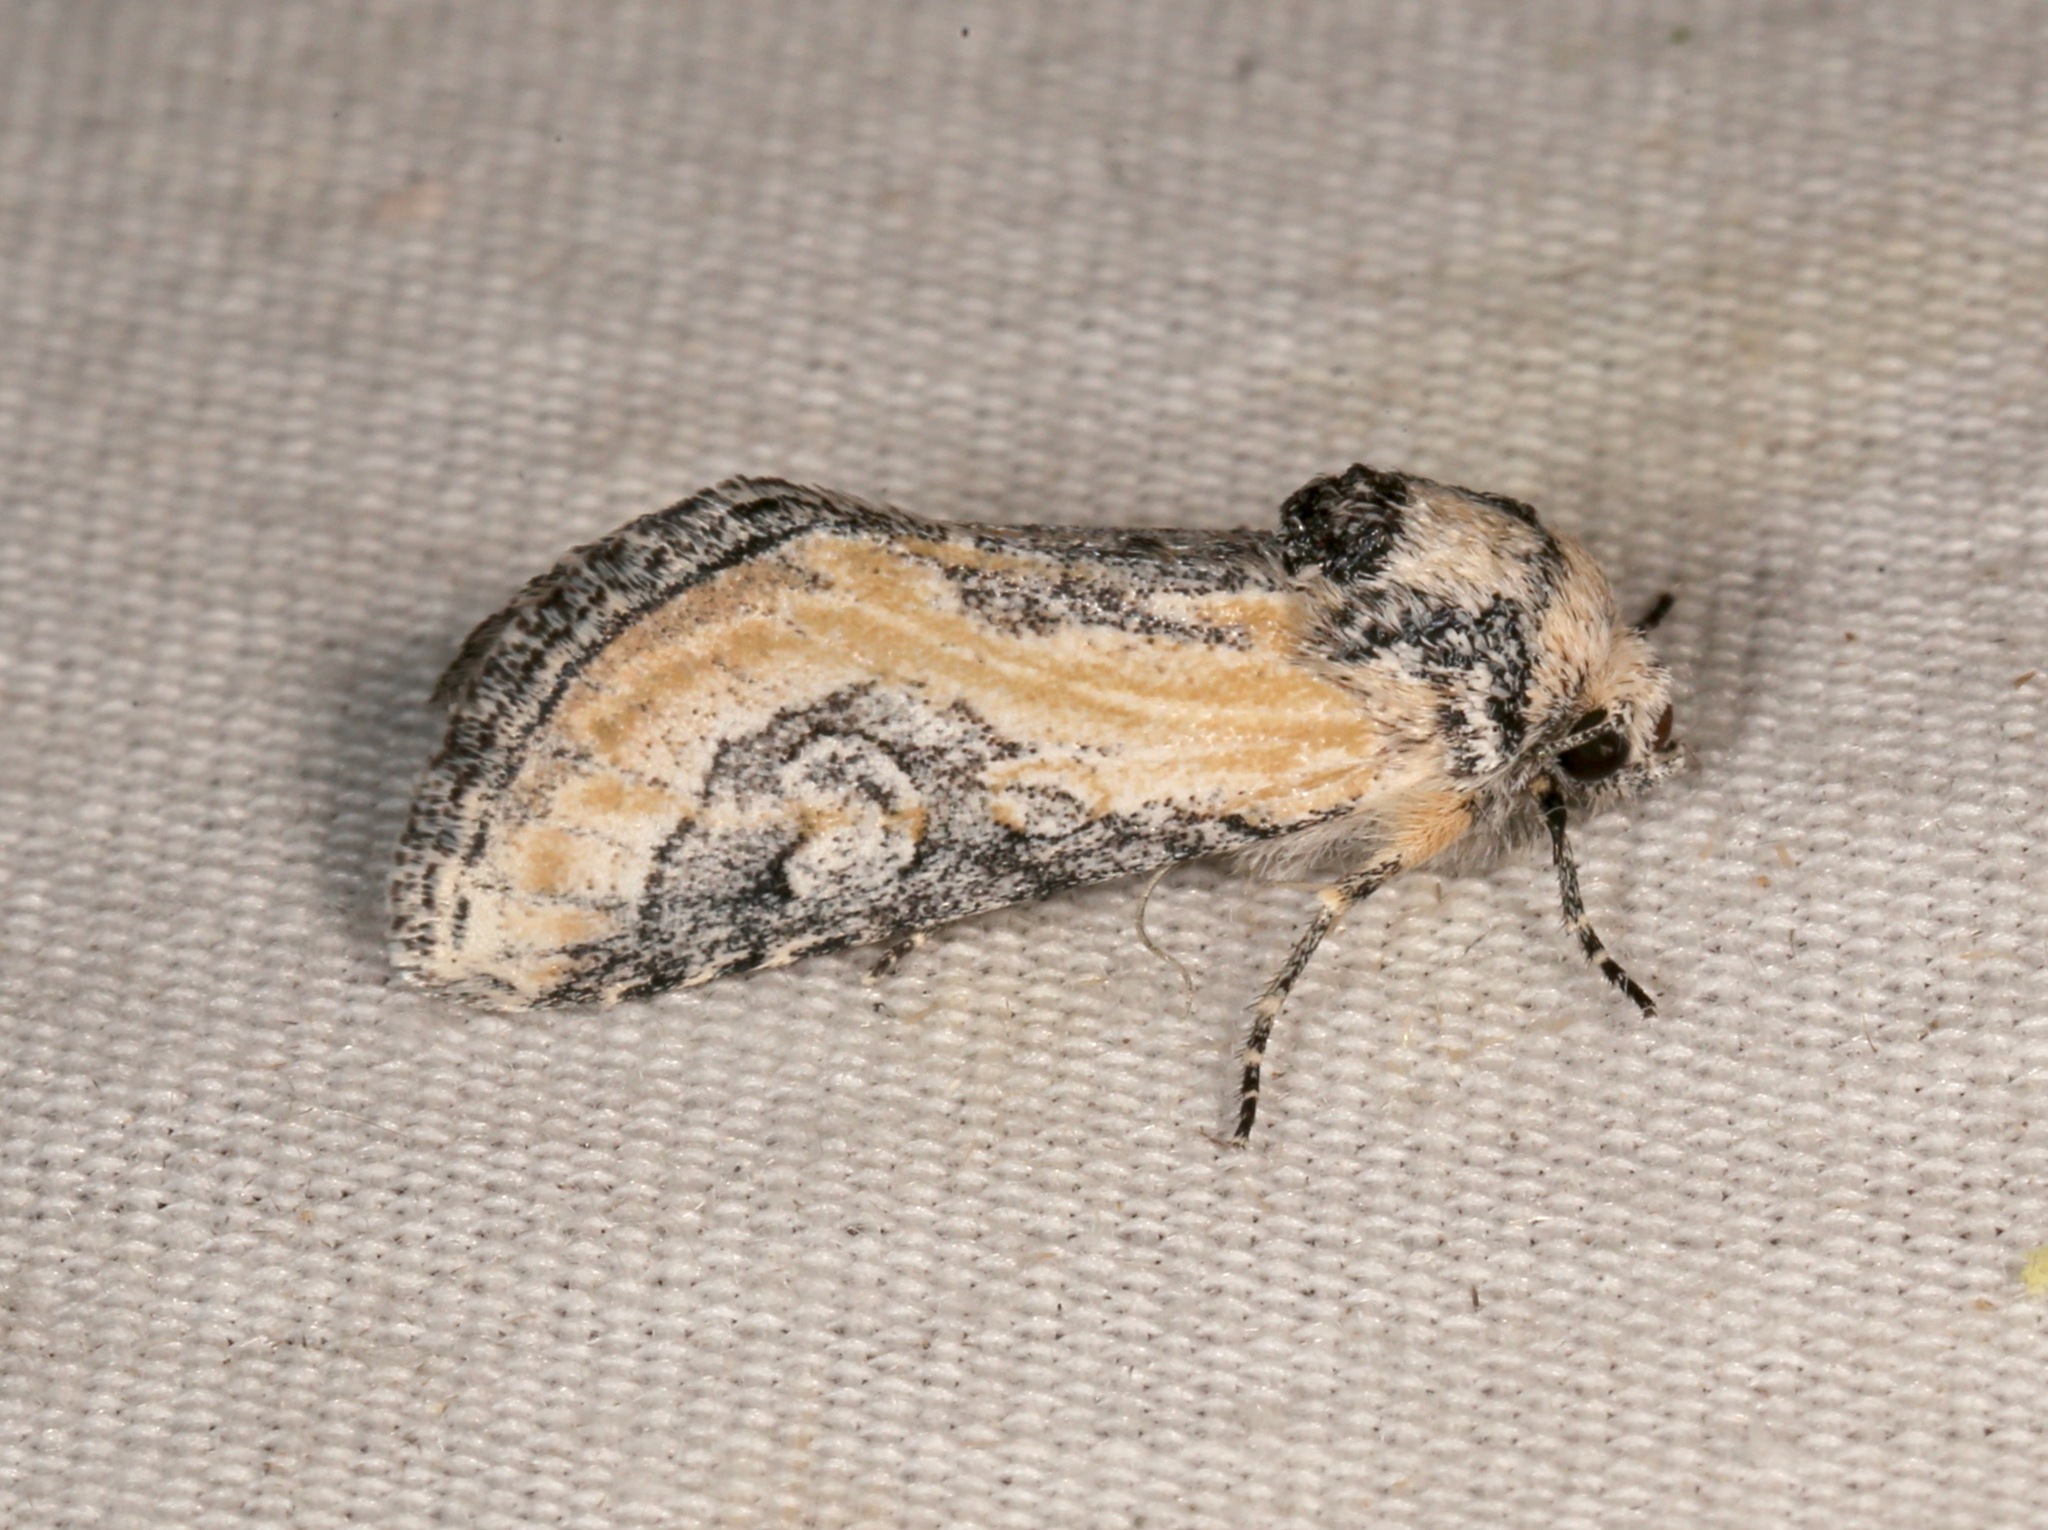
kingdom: Animalia
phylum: Arthropoda
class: Insecta
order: Lepidoptera
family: Noctuidae
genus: Crimona
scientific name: Crimona pallimedia
